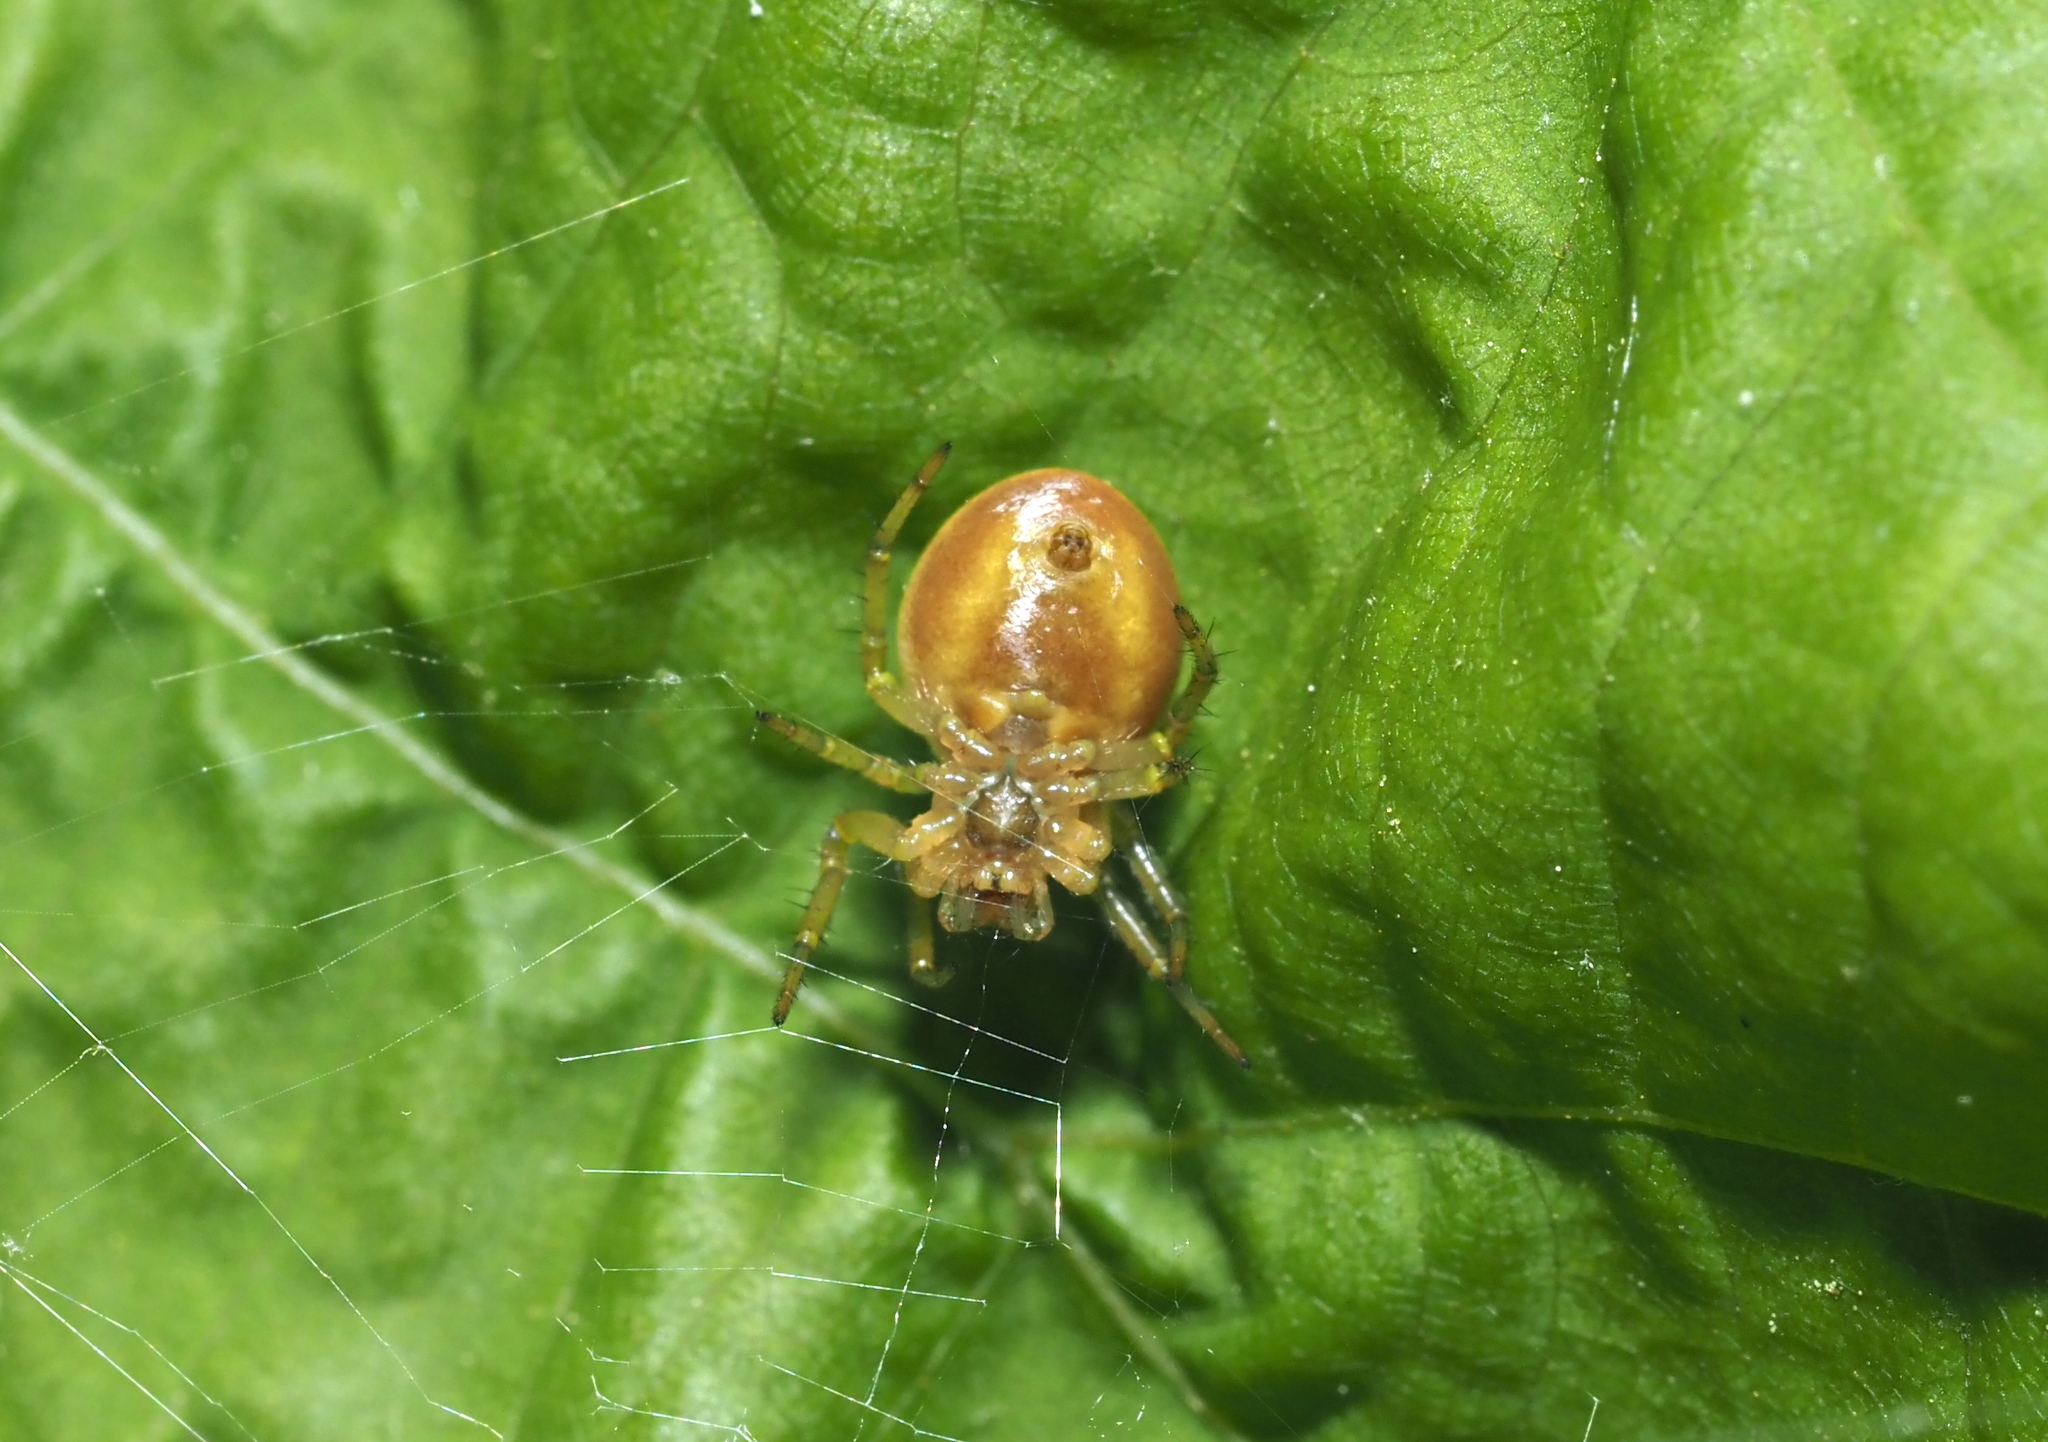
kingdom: Animalia
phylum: Arthropoda
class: Arachnida
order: Araneae
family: Araneidae
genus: Araniella
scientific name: Araniella displicata
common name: Sixspotted orb weaver
